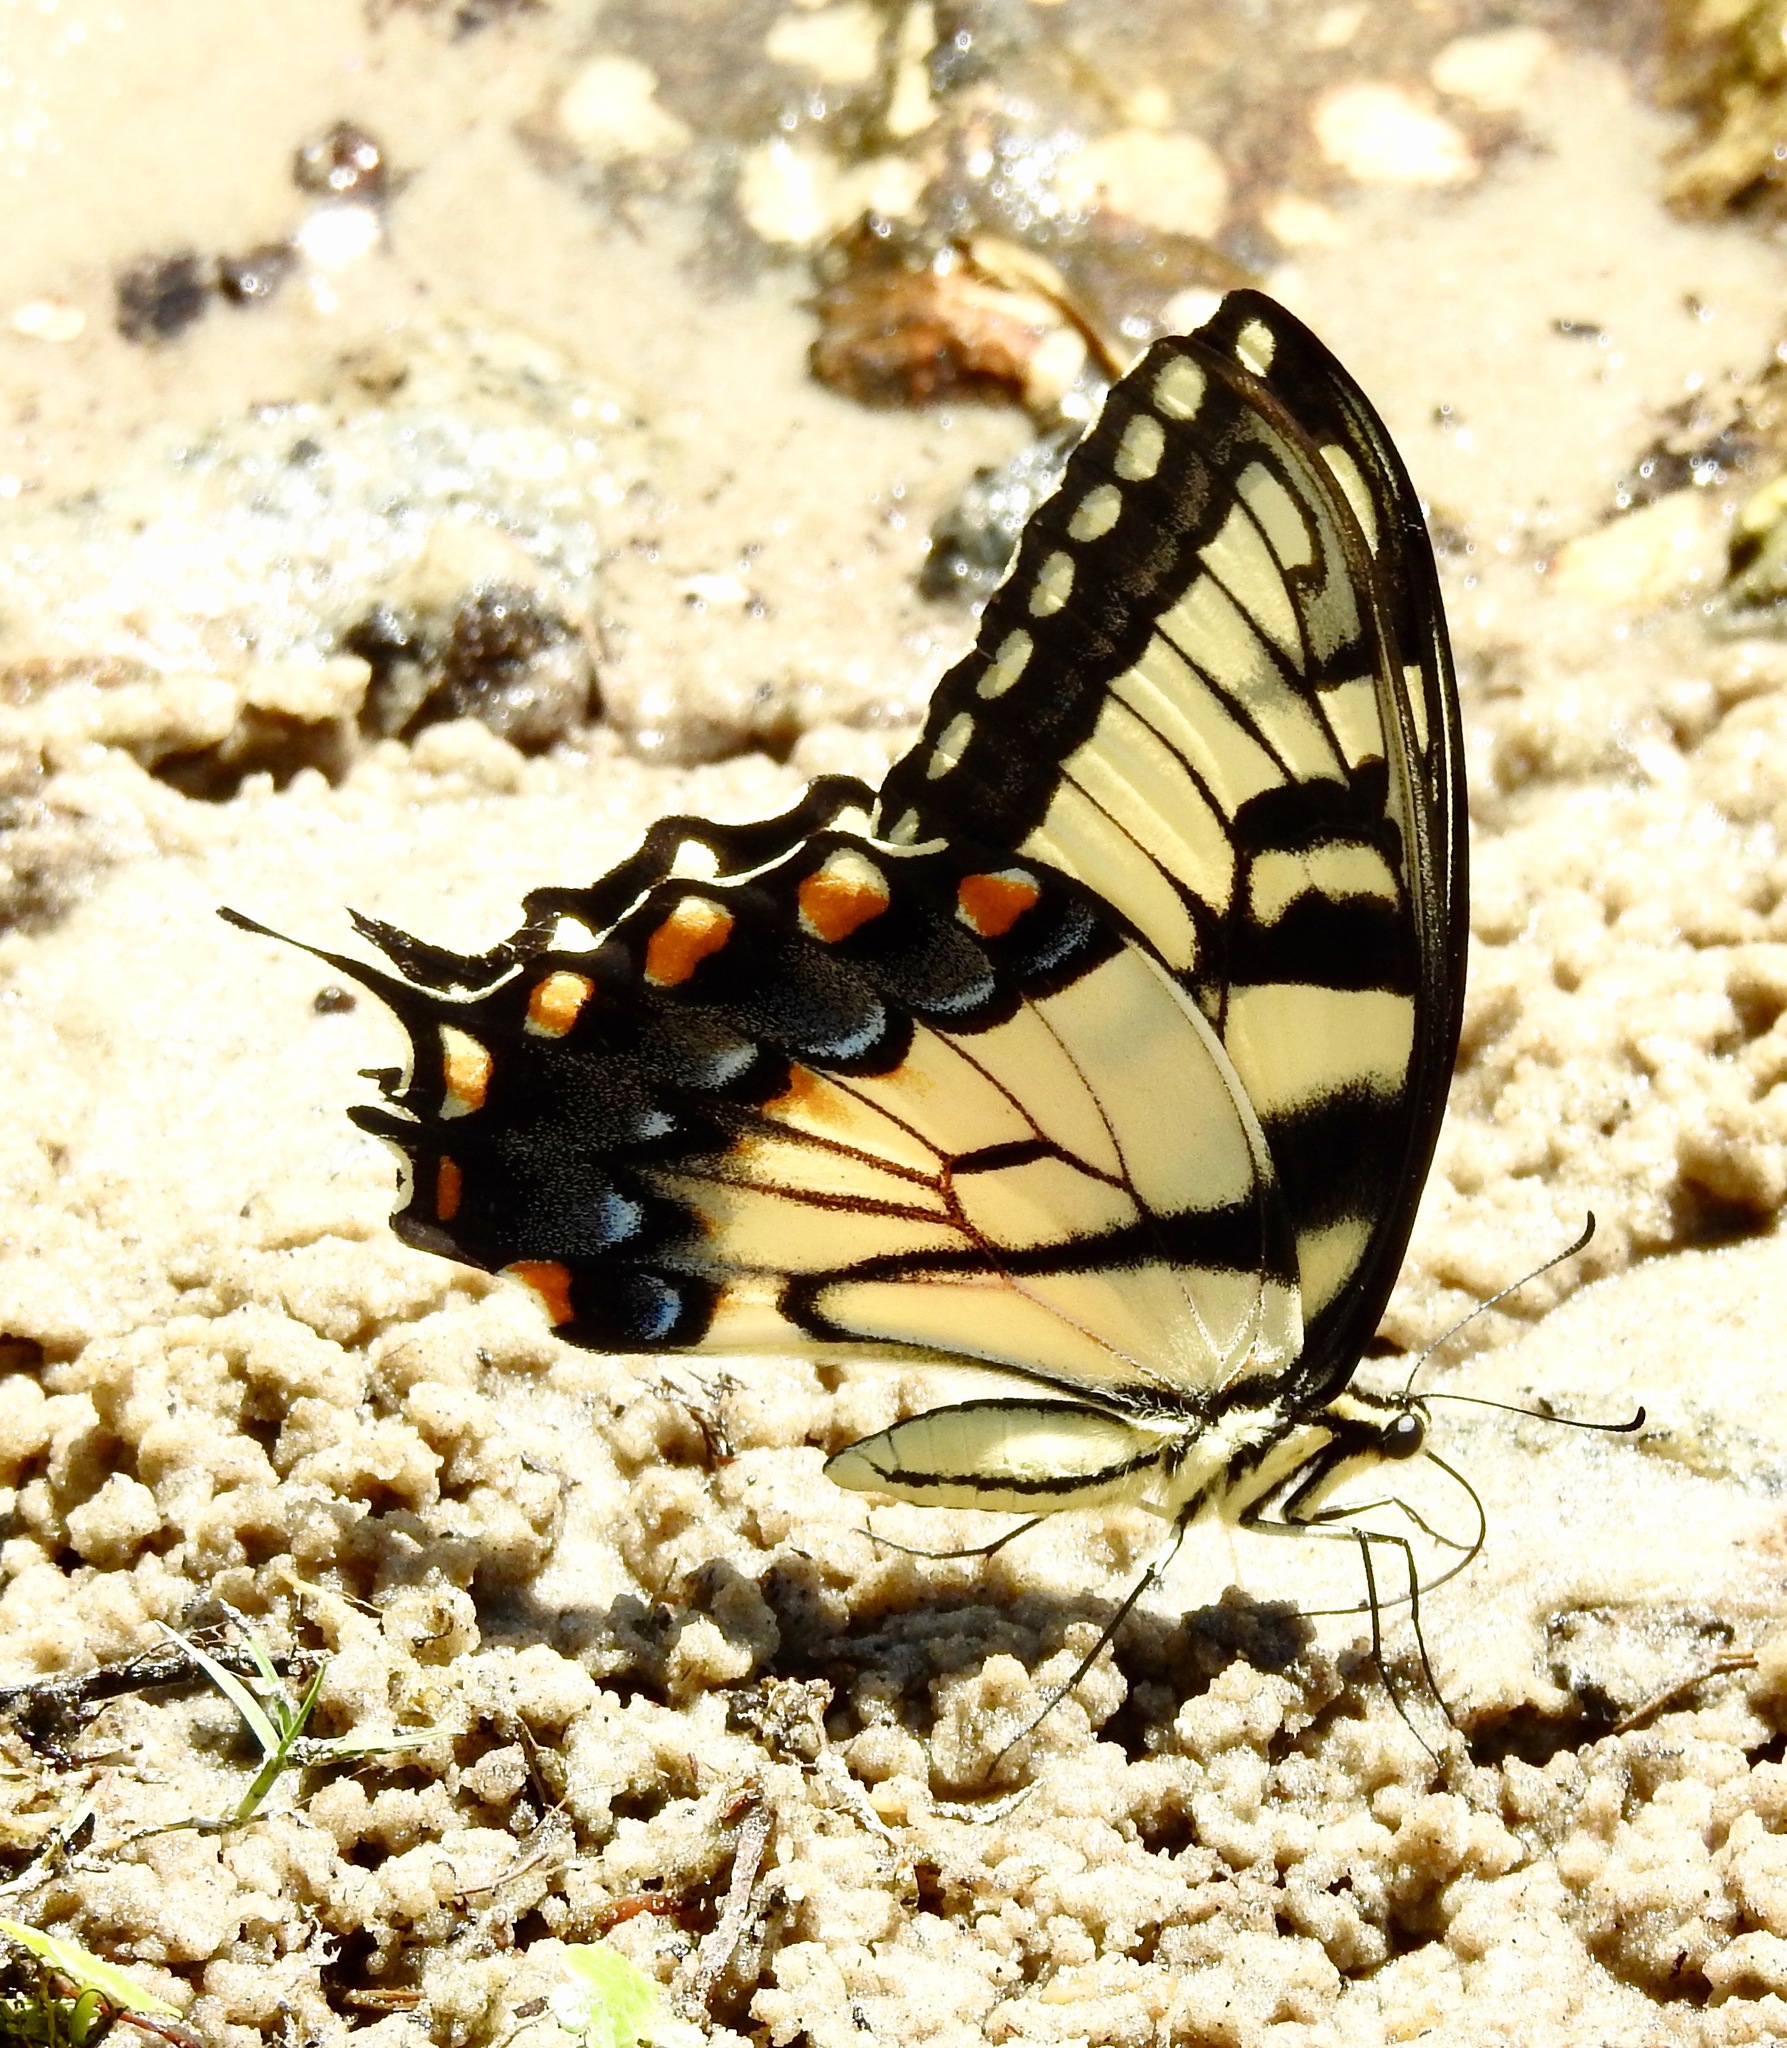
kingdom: Animalia
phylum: Arthropoda
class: Insecta
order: Lepidoptera
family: Papilionidae
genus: Papilio
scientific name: Papilio glaucus
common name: Tiger swallowtail
